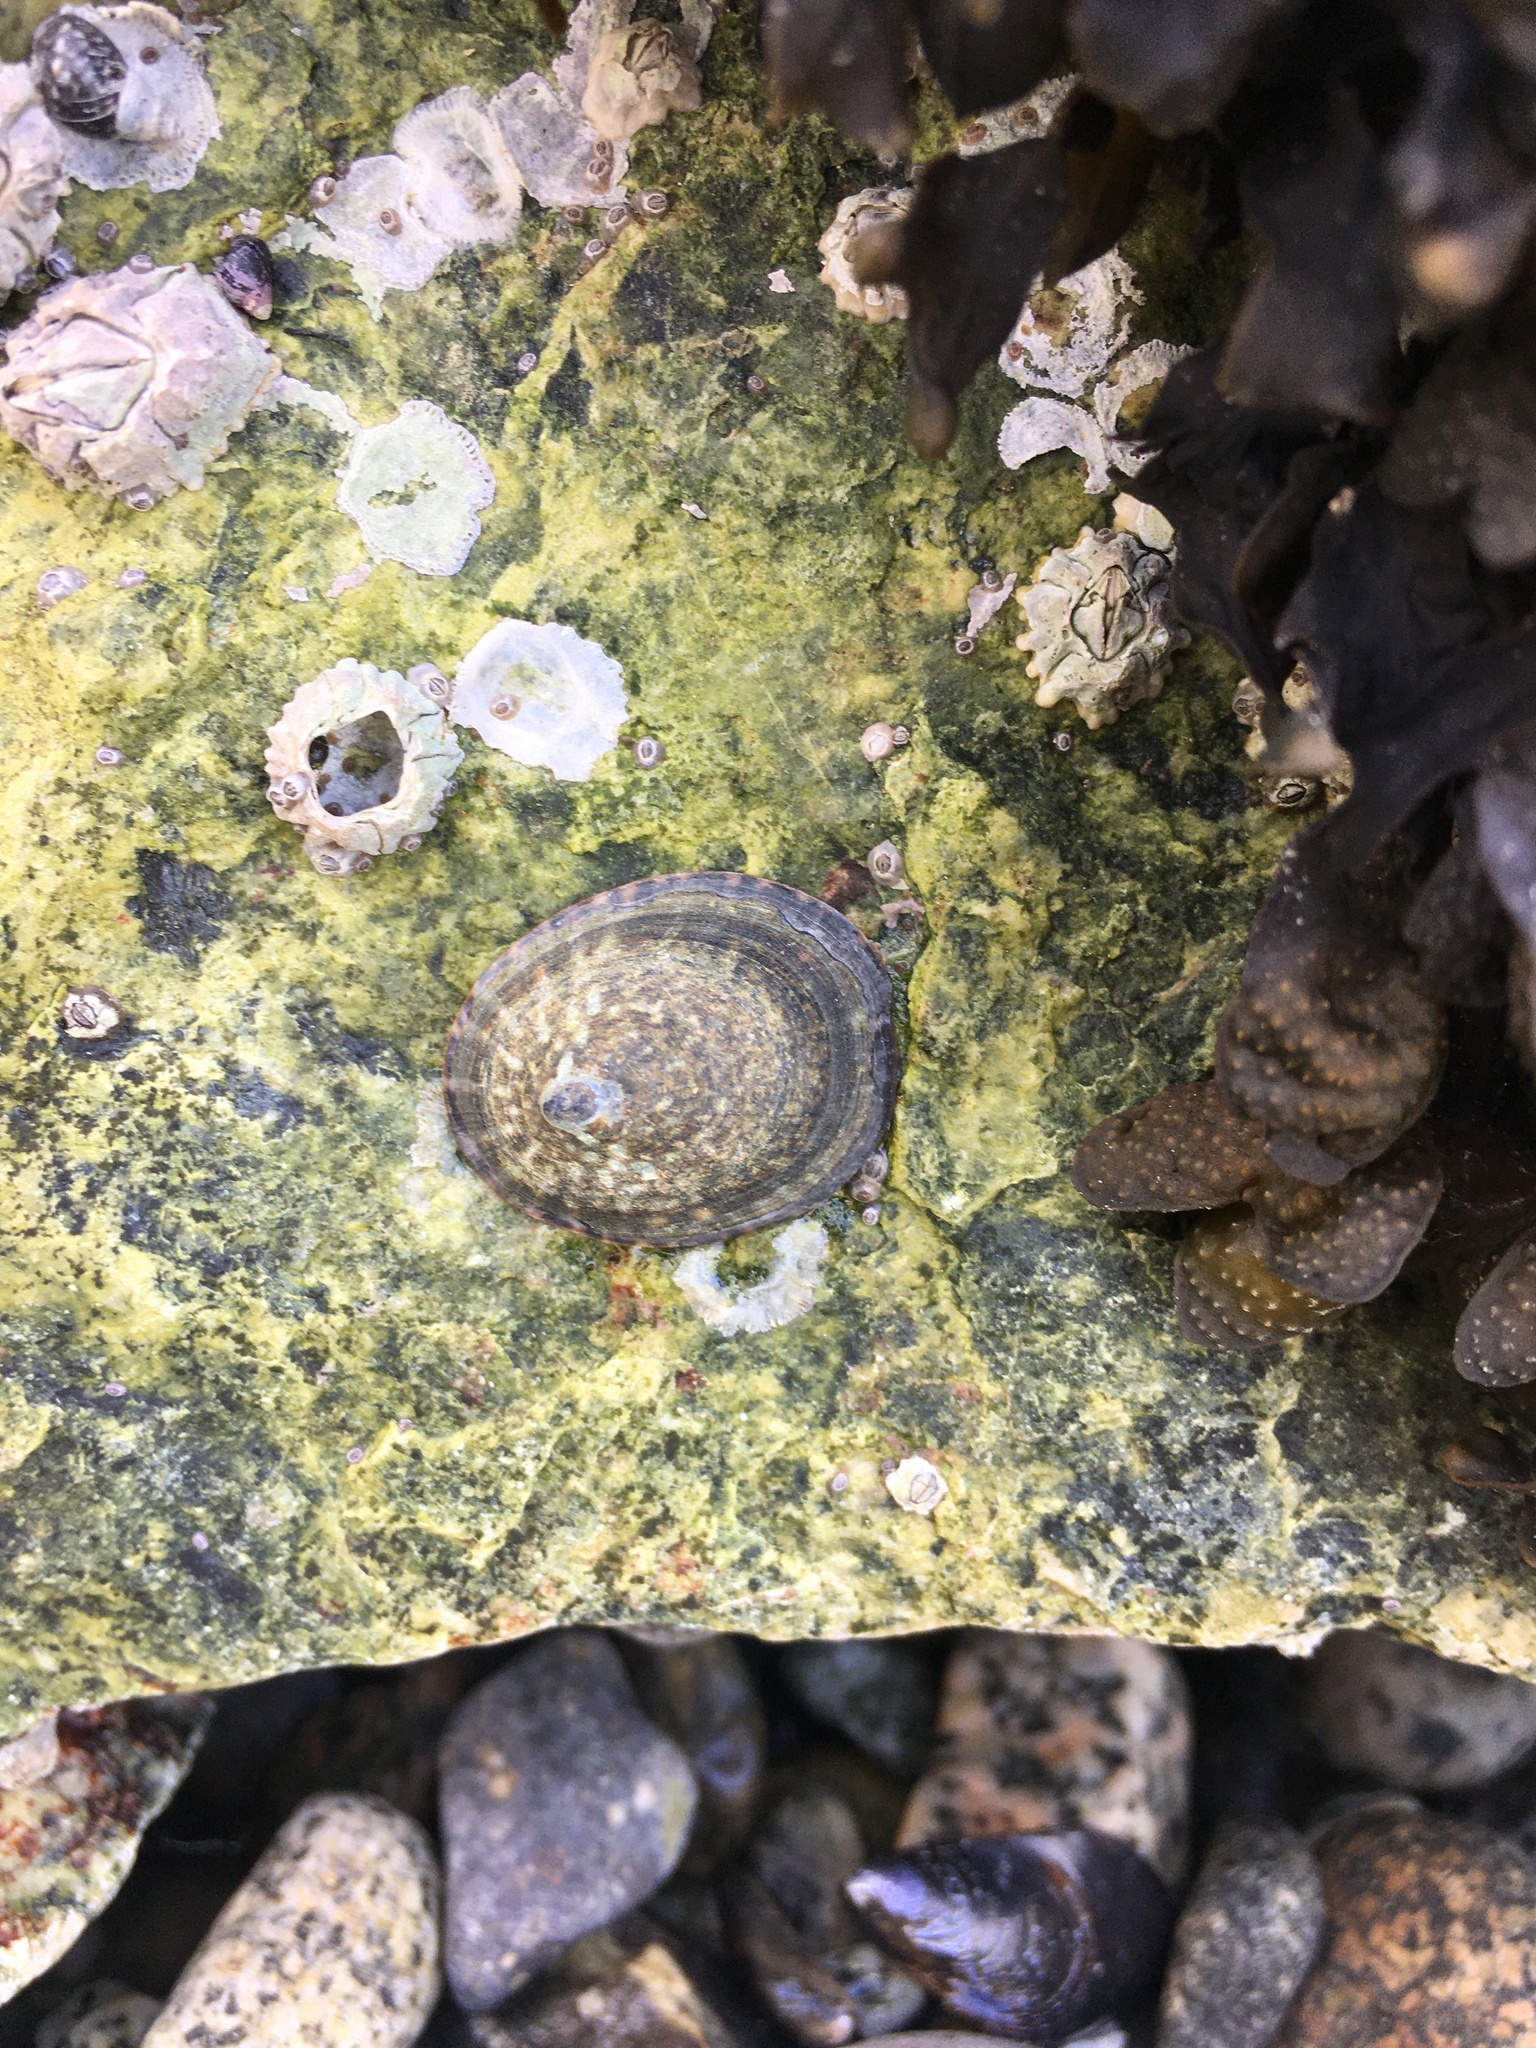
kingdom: Animalia
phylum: Mollusca
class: Gastropoda
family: Lottiidae
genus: Lottia
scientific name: Lottia persona
